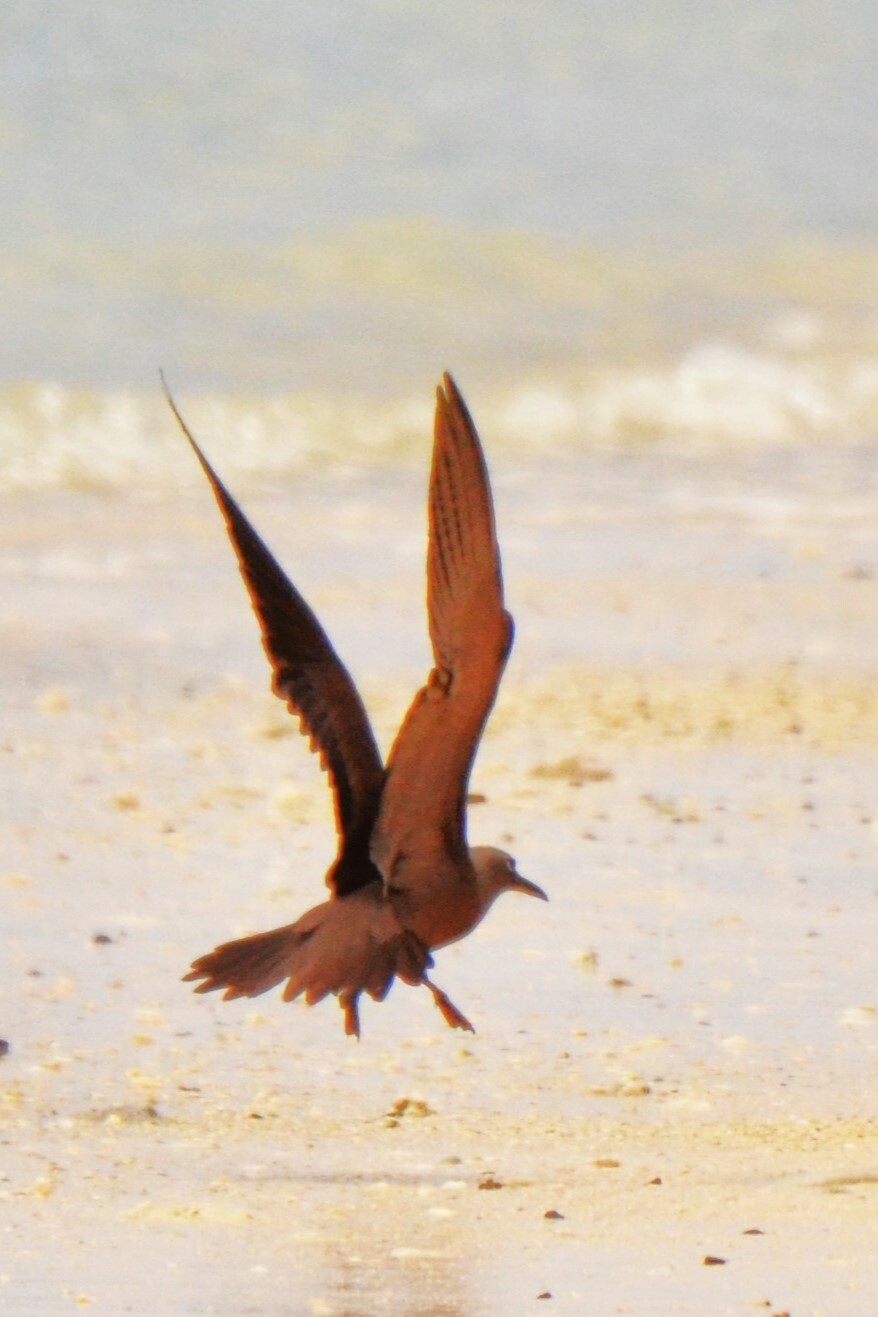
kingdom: Animalia
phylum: Chordata
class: Aves
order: Charadriiformes
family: Laridae
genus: Anous
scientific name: Anous stolidus
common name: Brown noddy
